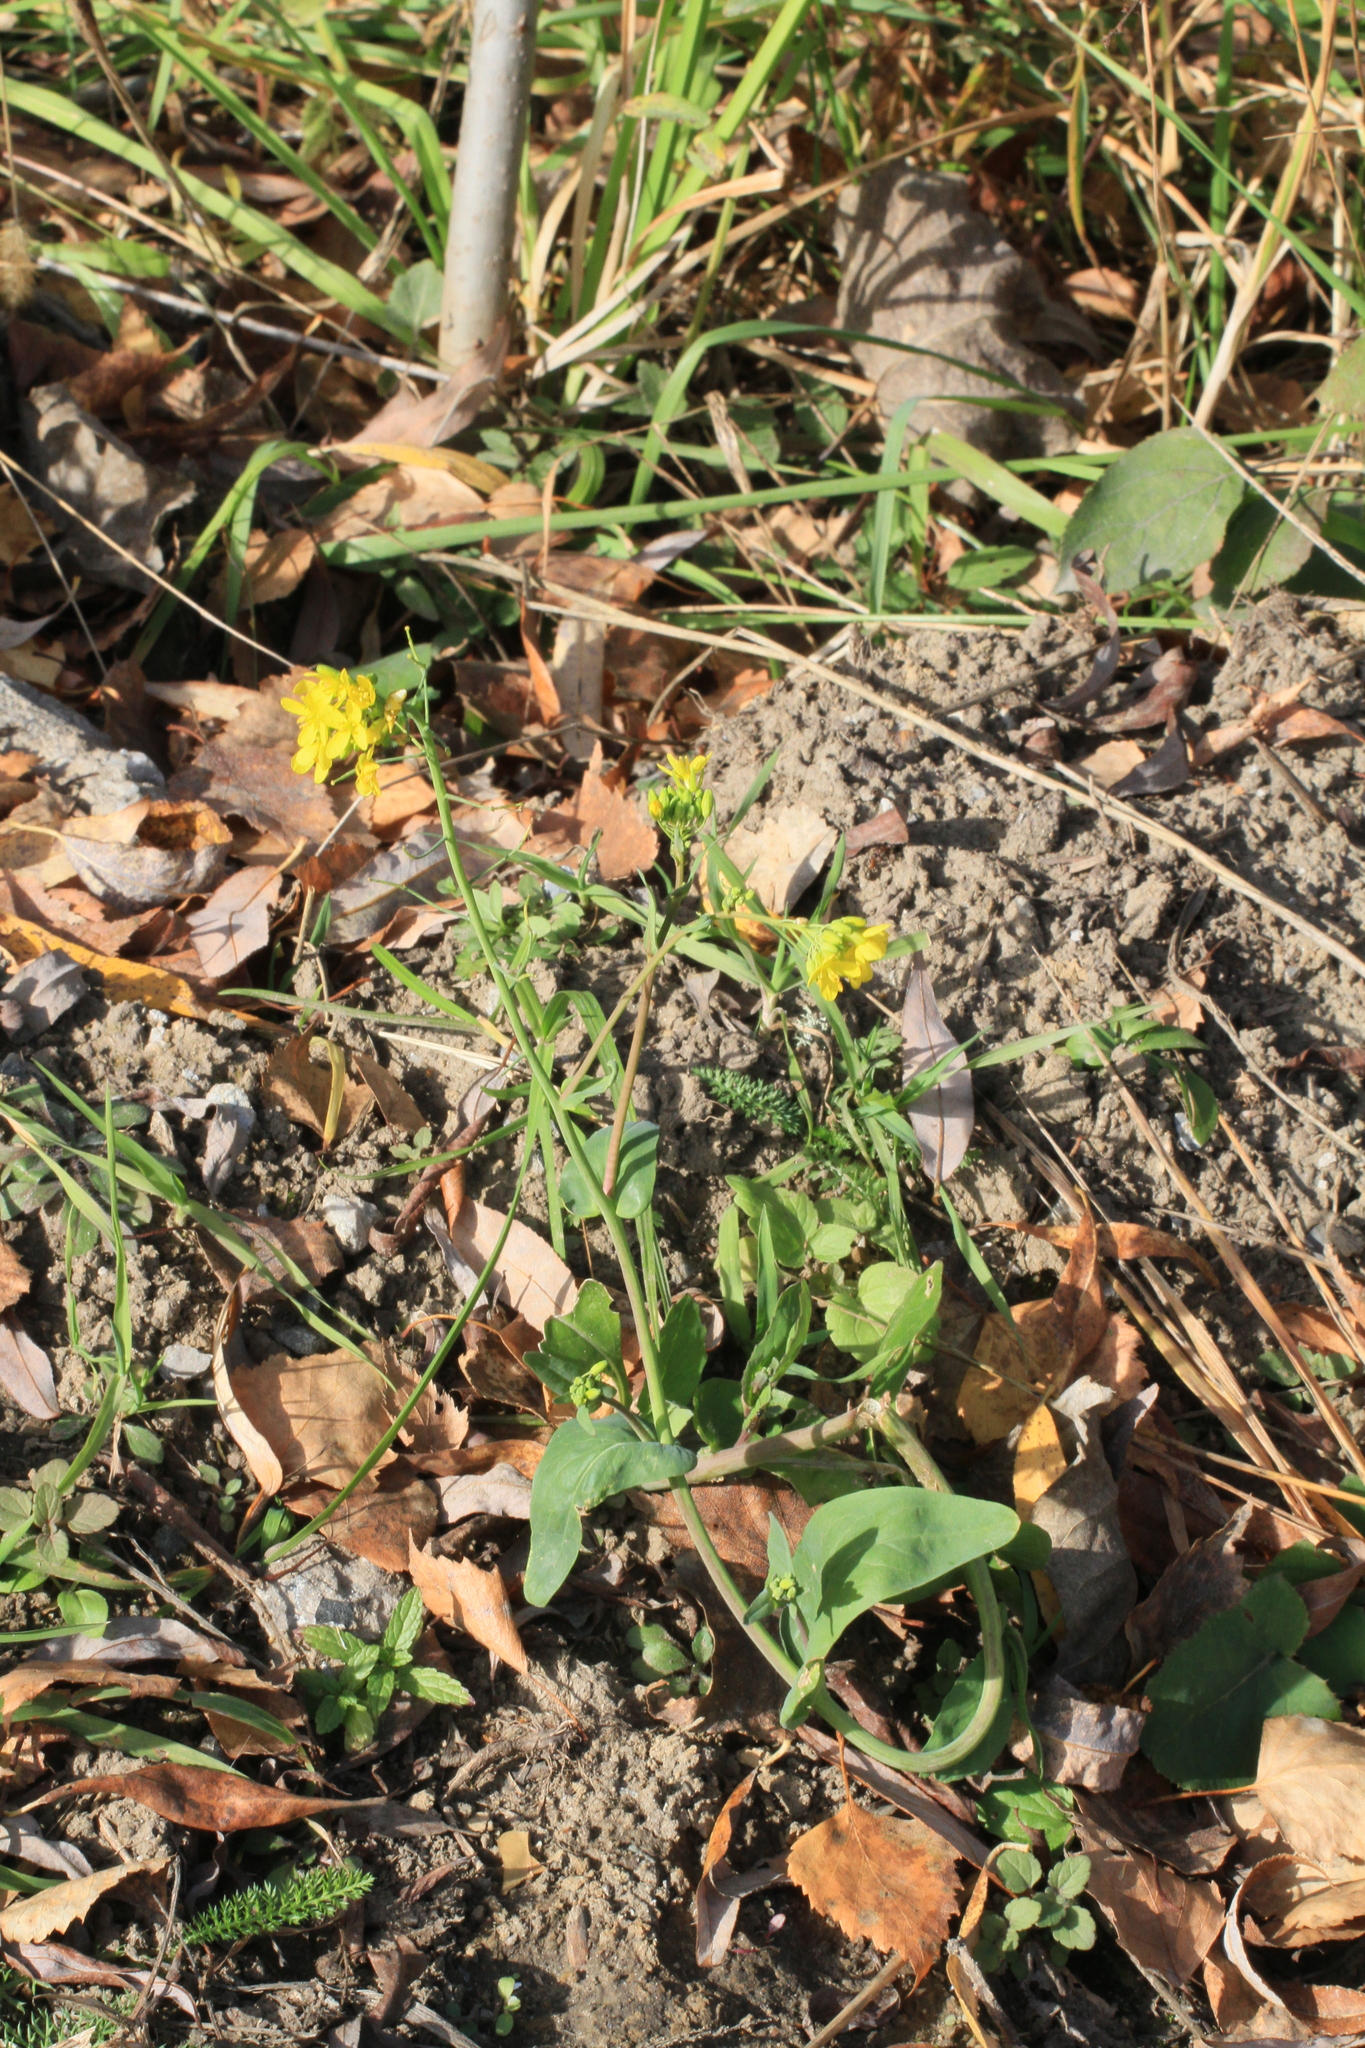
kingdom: Plantae
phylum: Tracheophyta
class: Magnoliopsida
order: Brassicales
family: Brassicaceae
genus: Brassica
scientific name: Brassica rapa
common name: Field mustard
